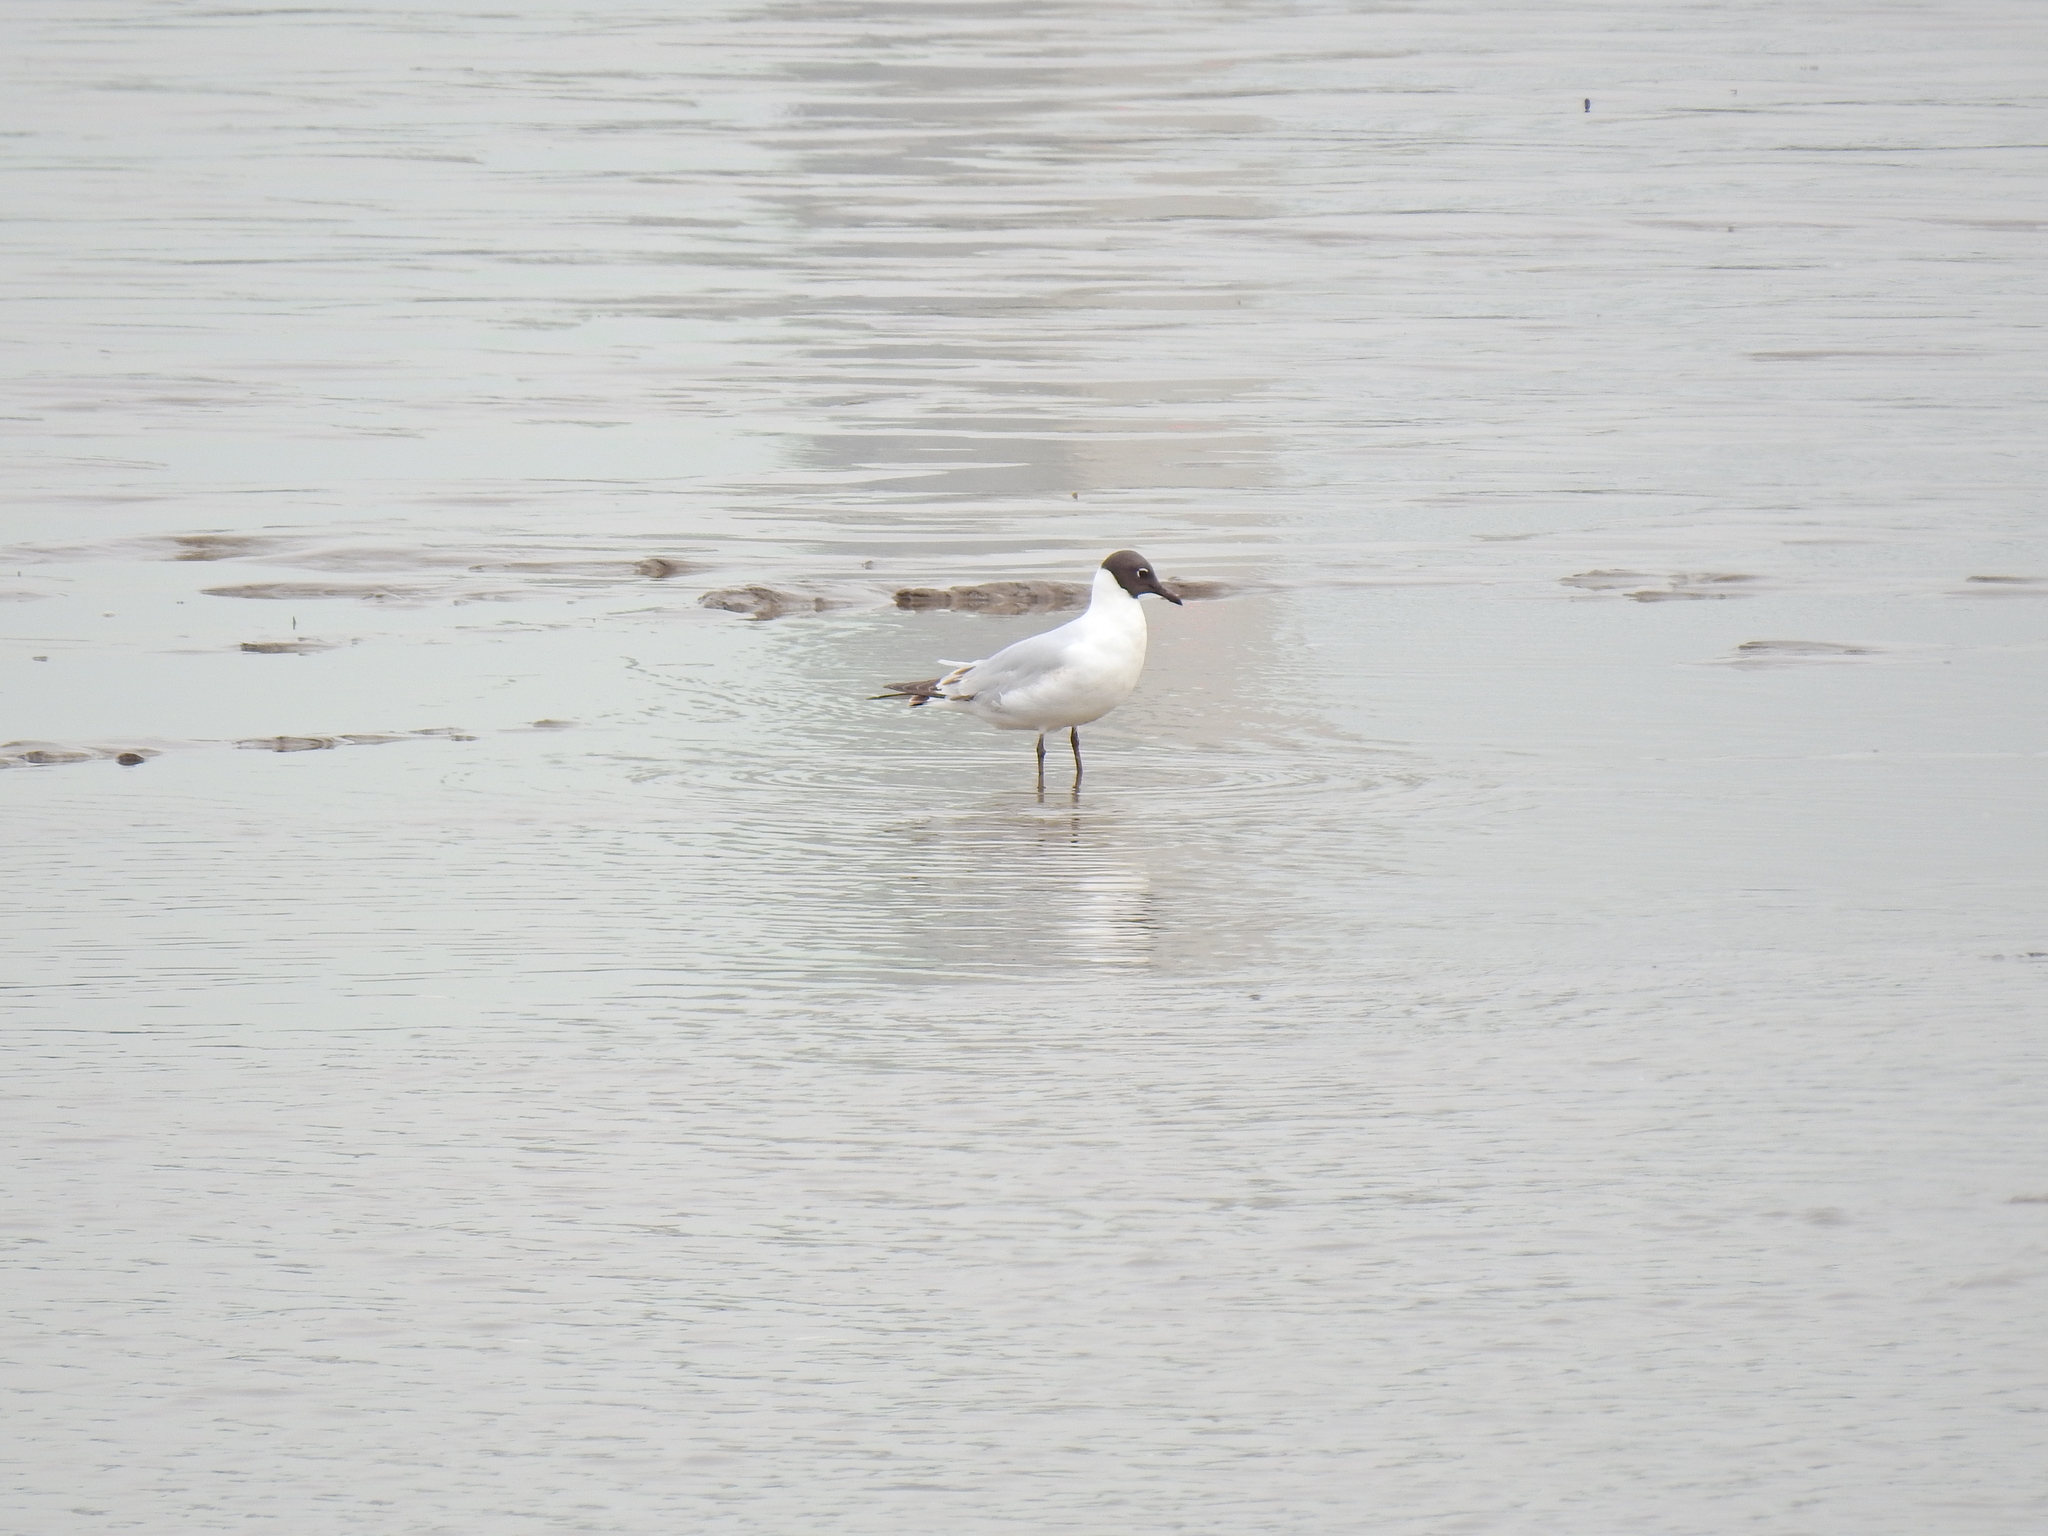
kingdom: Animalia
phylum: Chordata
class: Aves
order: Charadriiformes
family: Laridae
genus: Chroicocephalus
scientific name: Chroicocephalus ridibundus
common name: Black-headed gull
